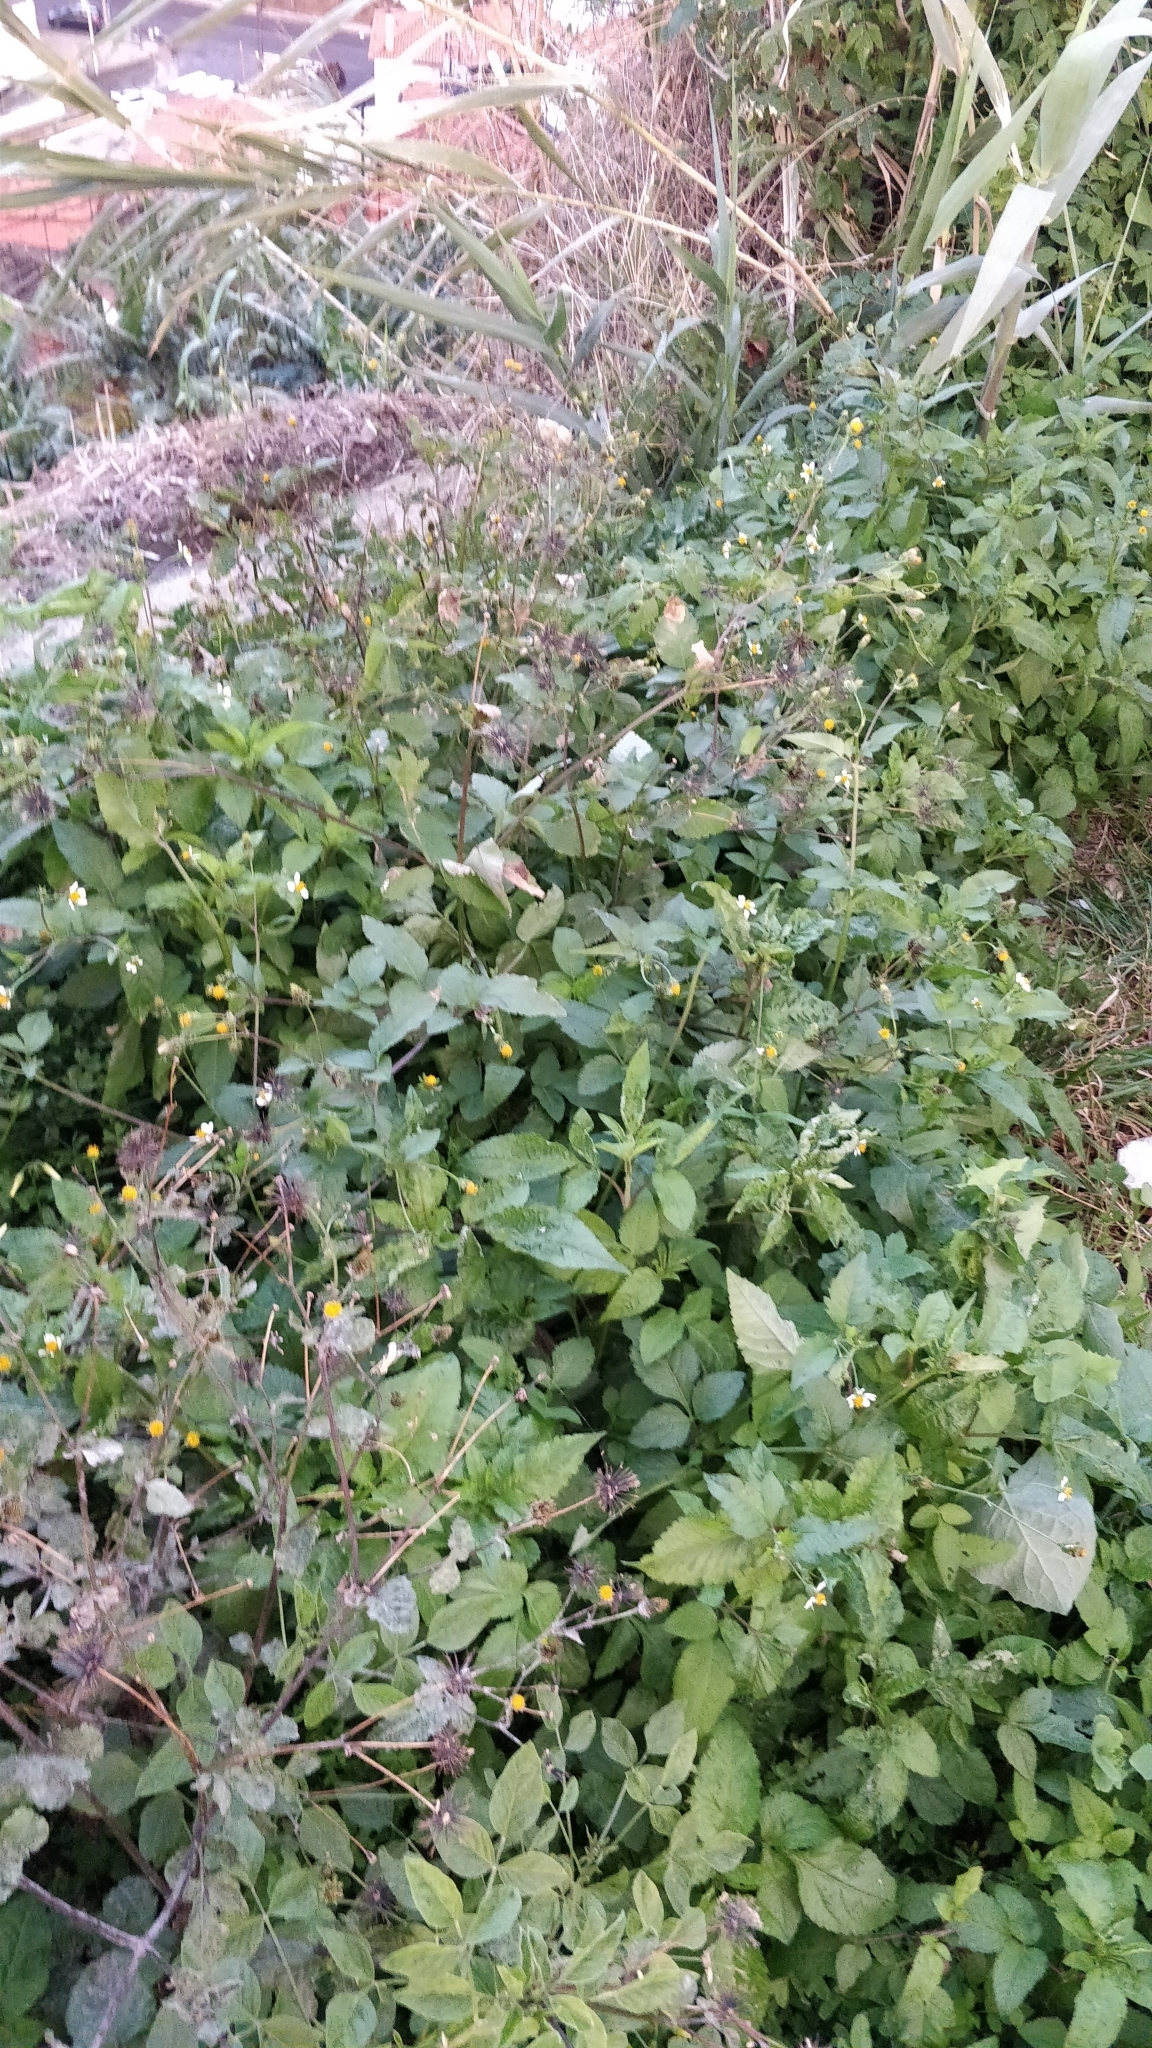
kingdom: Plantae
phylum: Tracheophyta
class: Magnoliopsida
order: Asterales
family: Asteraceae
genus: Bidens
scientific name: Bidens pilosa
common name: Black-jack
